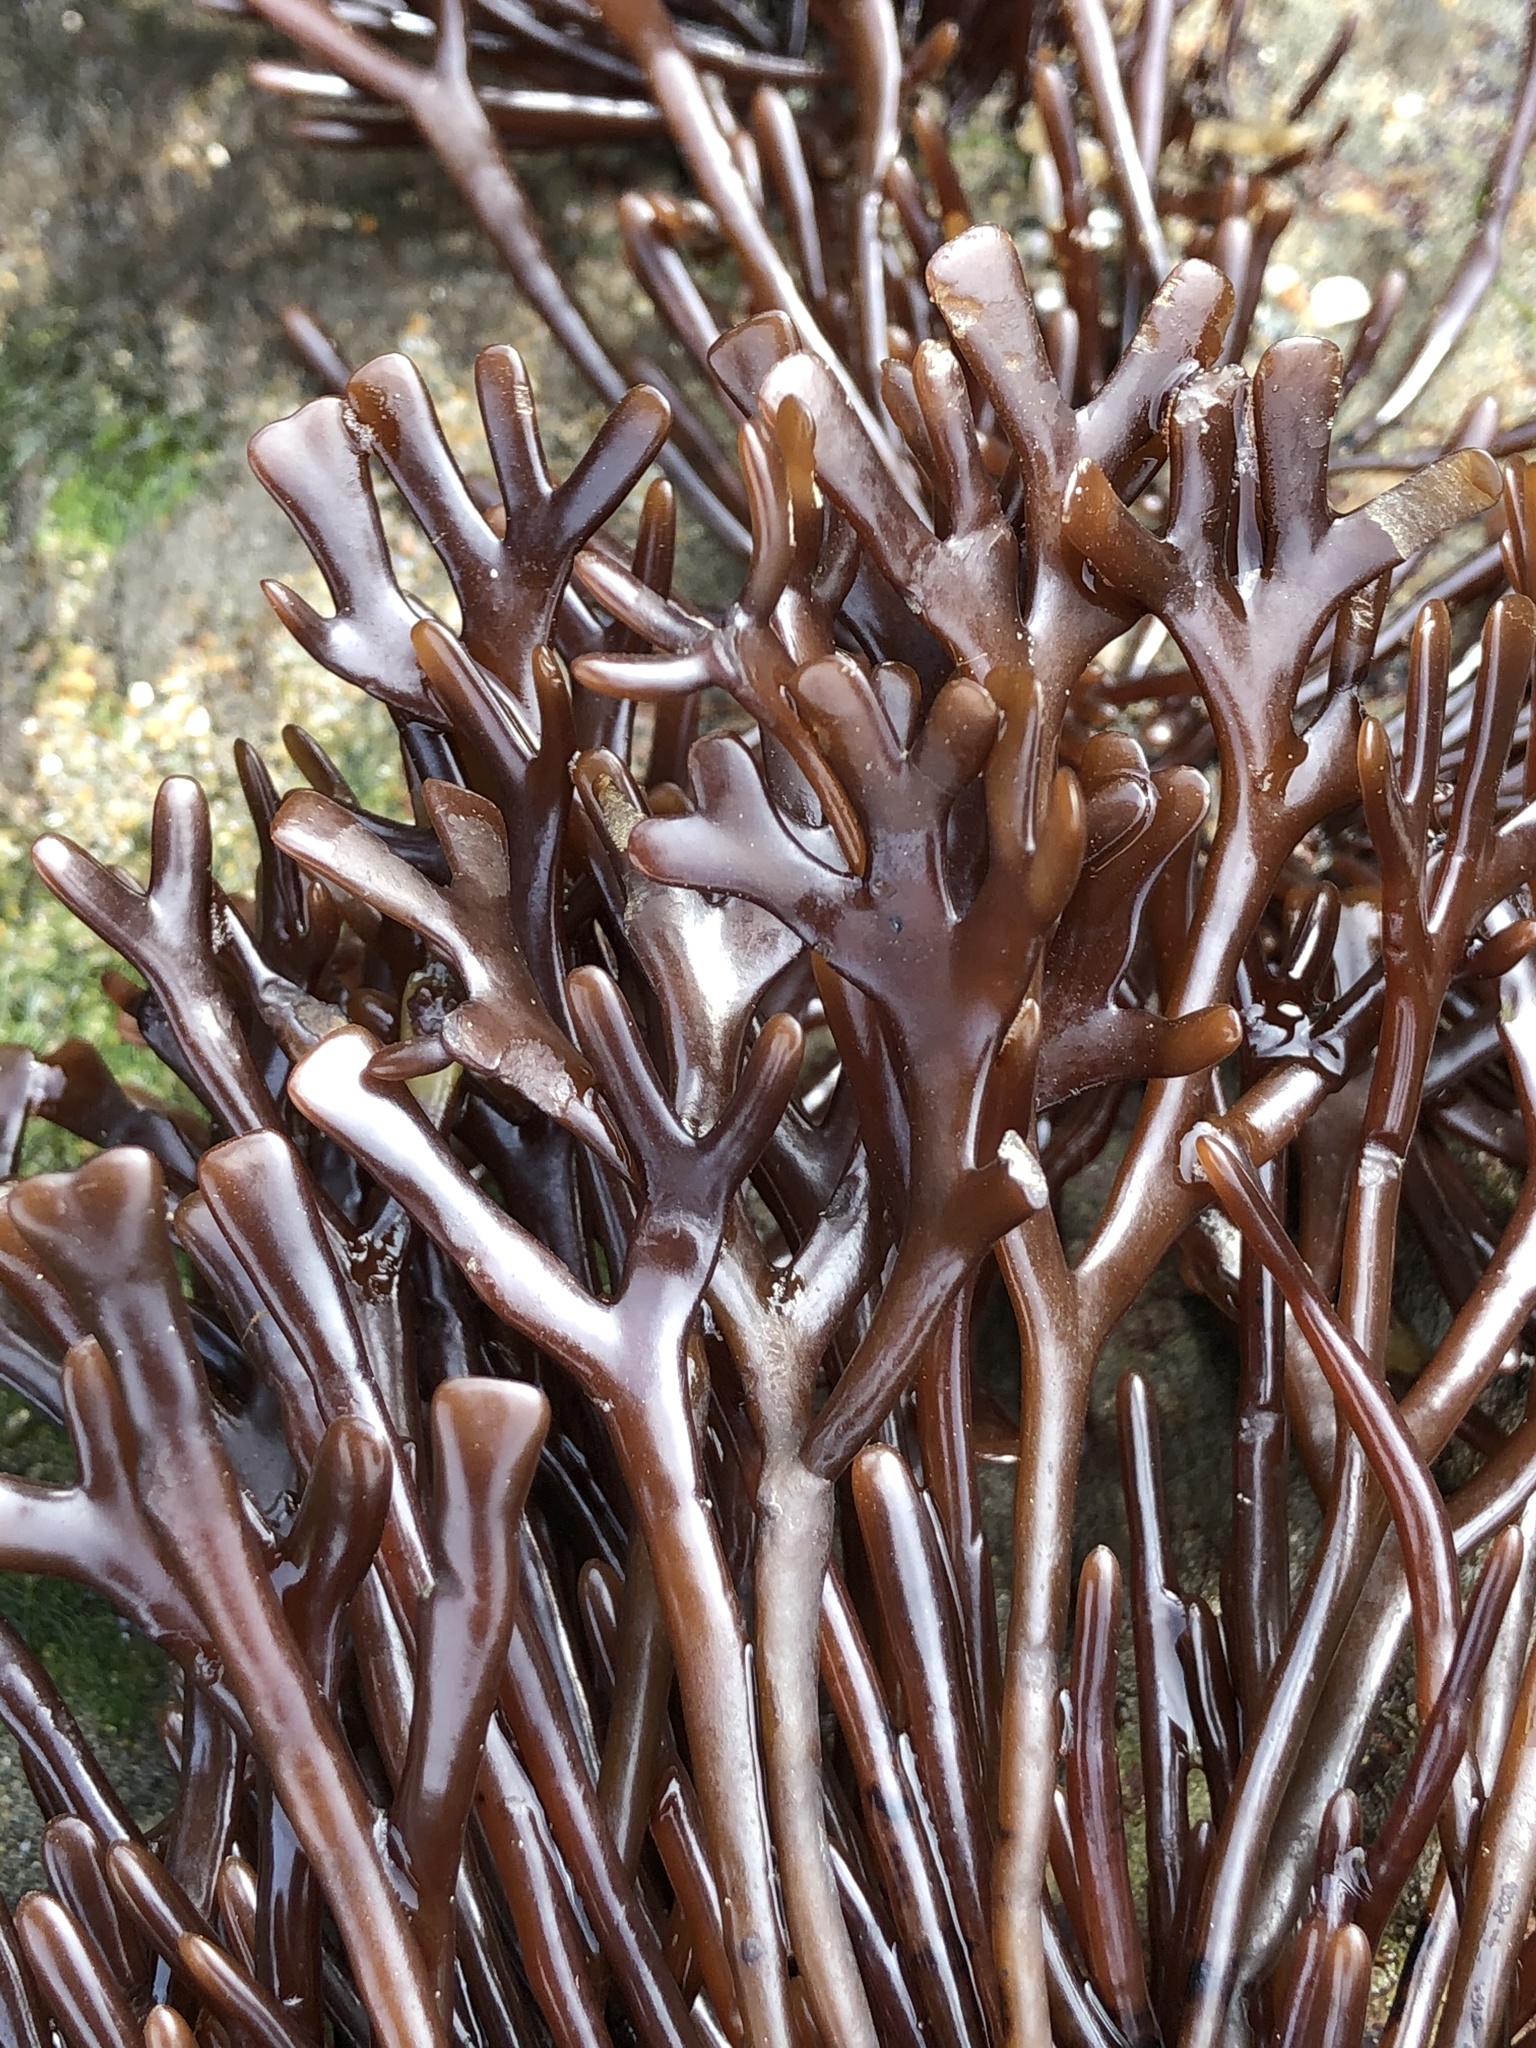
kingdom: Plantae
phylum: Rhodophyta
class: Florideophyceae
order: Gigartinales
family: Phyllophoraceae
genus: Ahnfeltiopsis
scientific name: Ahnfeltiopsis linearis
